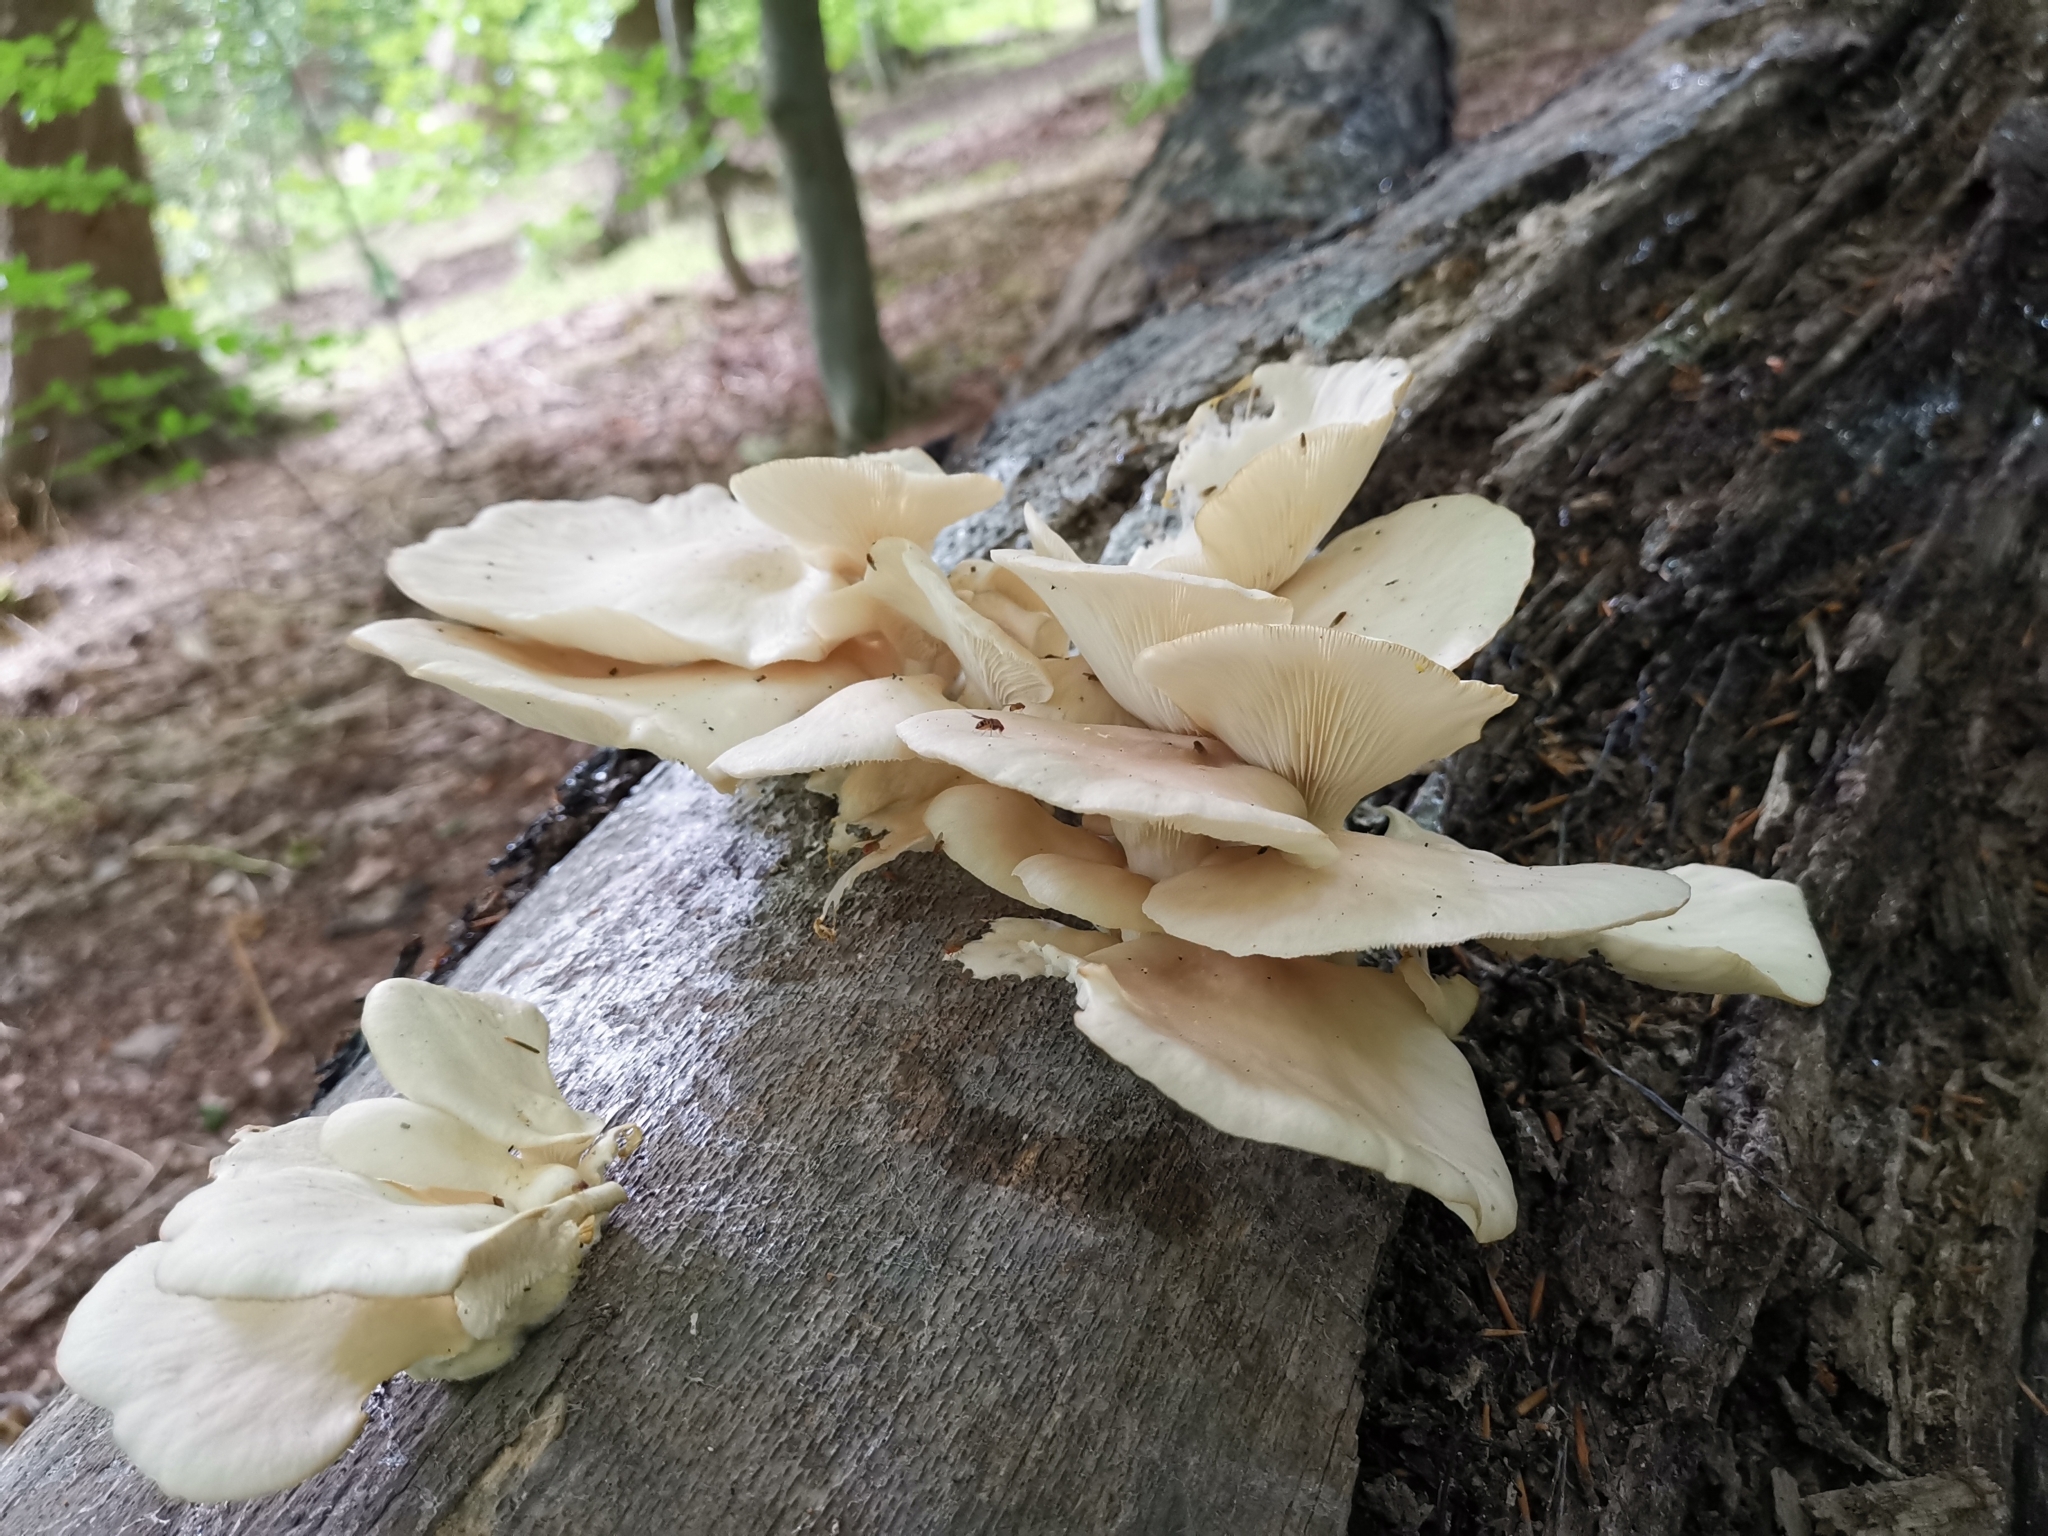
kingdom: Fungi
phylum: Basidiomycota
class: Agaricomycetes
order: Agaricales
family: Pleurotaceae
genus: Pleurotus
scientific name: Pleurotus pulmonarius
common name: Pale oyster
